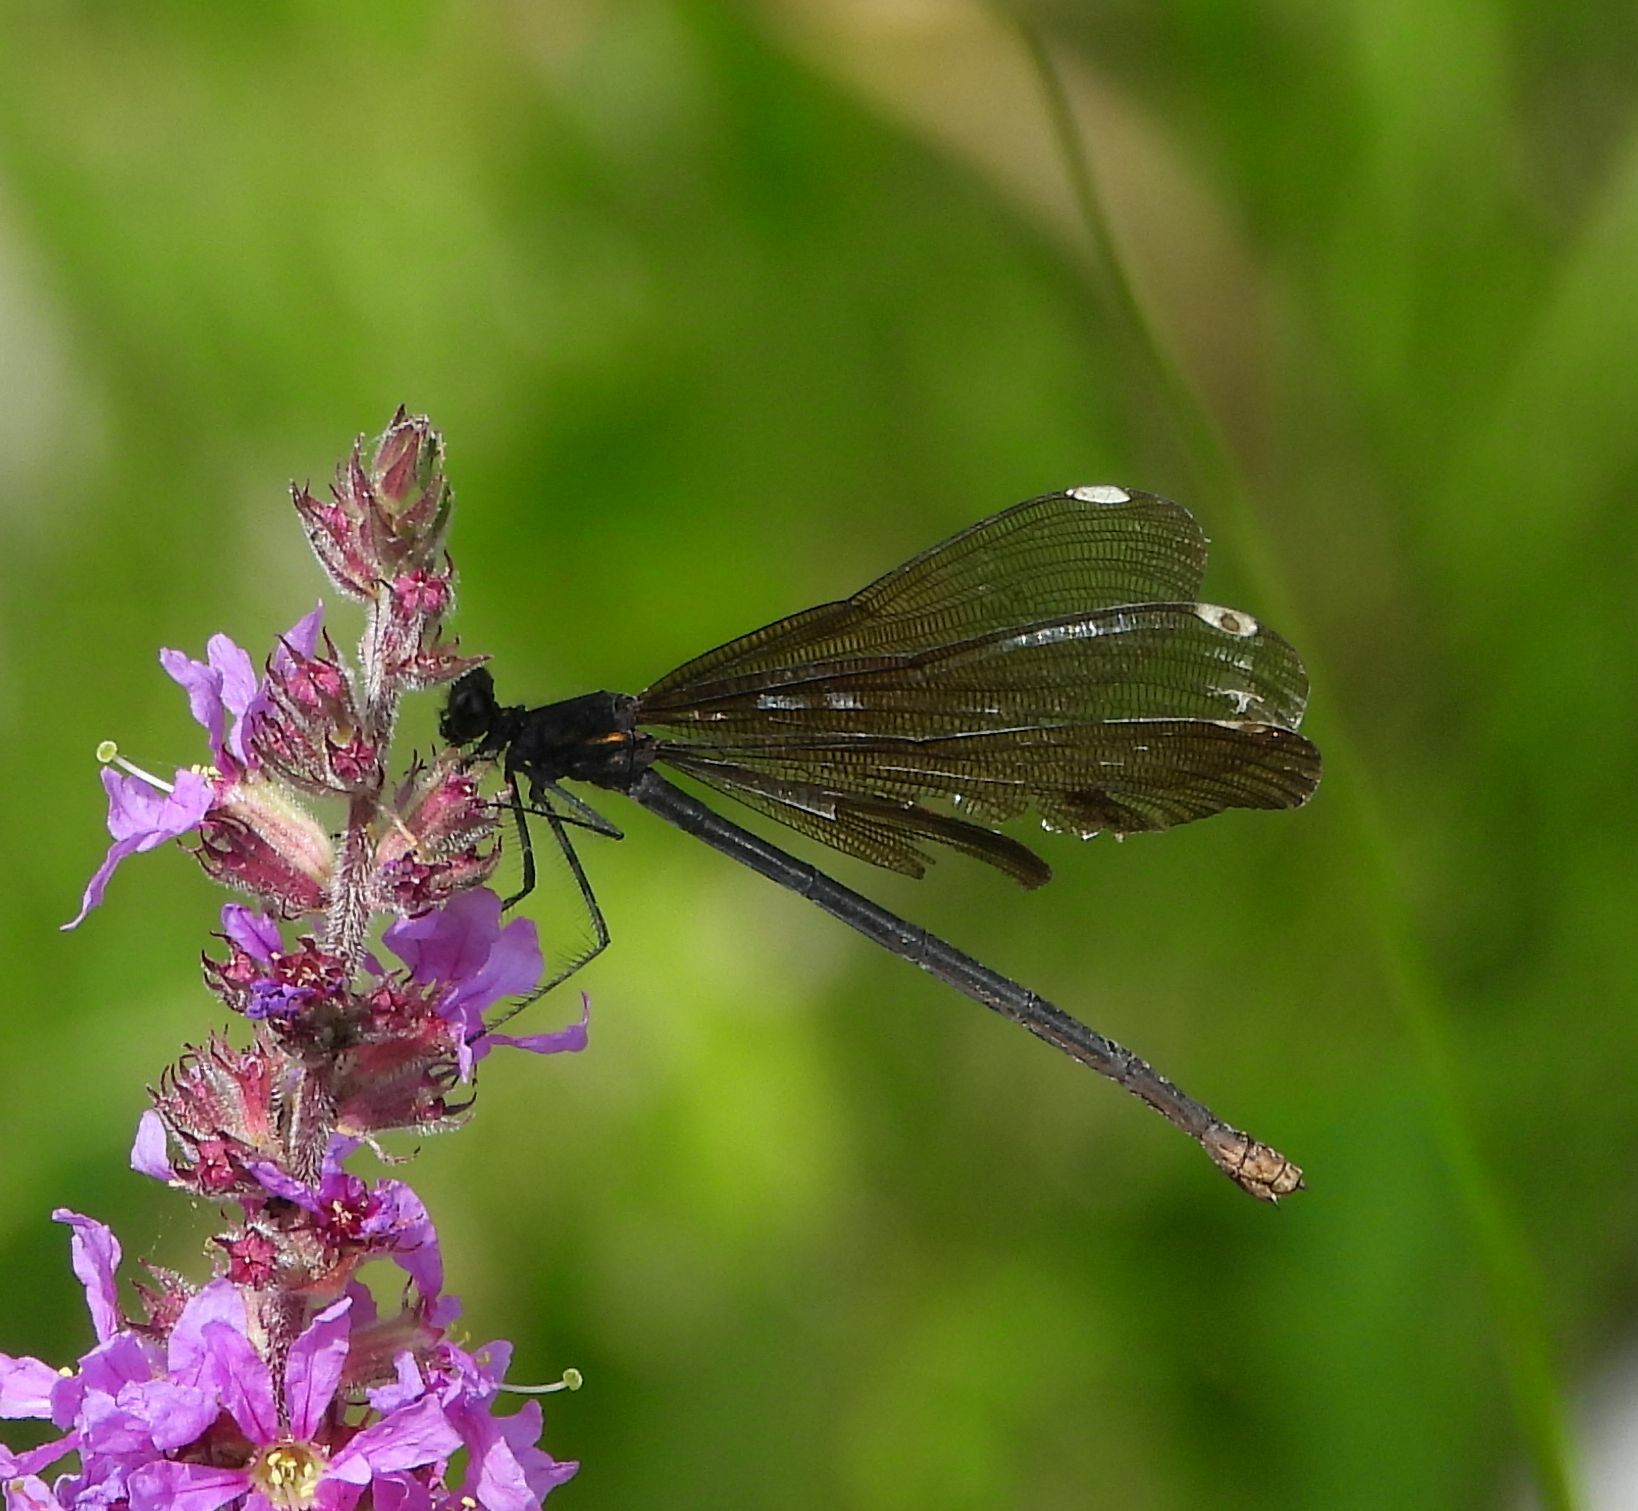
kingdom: Animalia
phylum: Arthropoda
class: Insecta
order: Odonata
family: Calopterygidae
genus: Calopteryx
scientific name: Calopteryx maculata
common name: Ebony jewelwing
